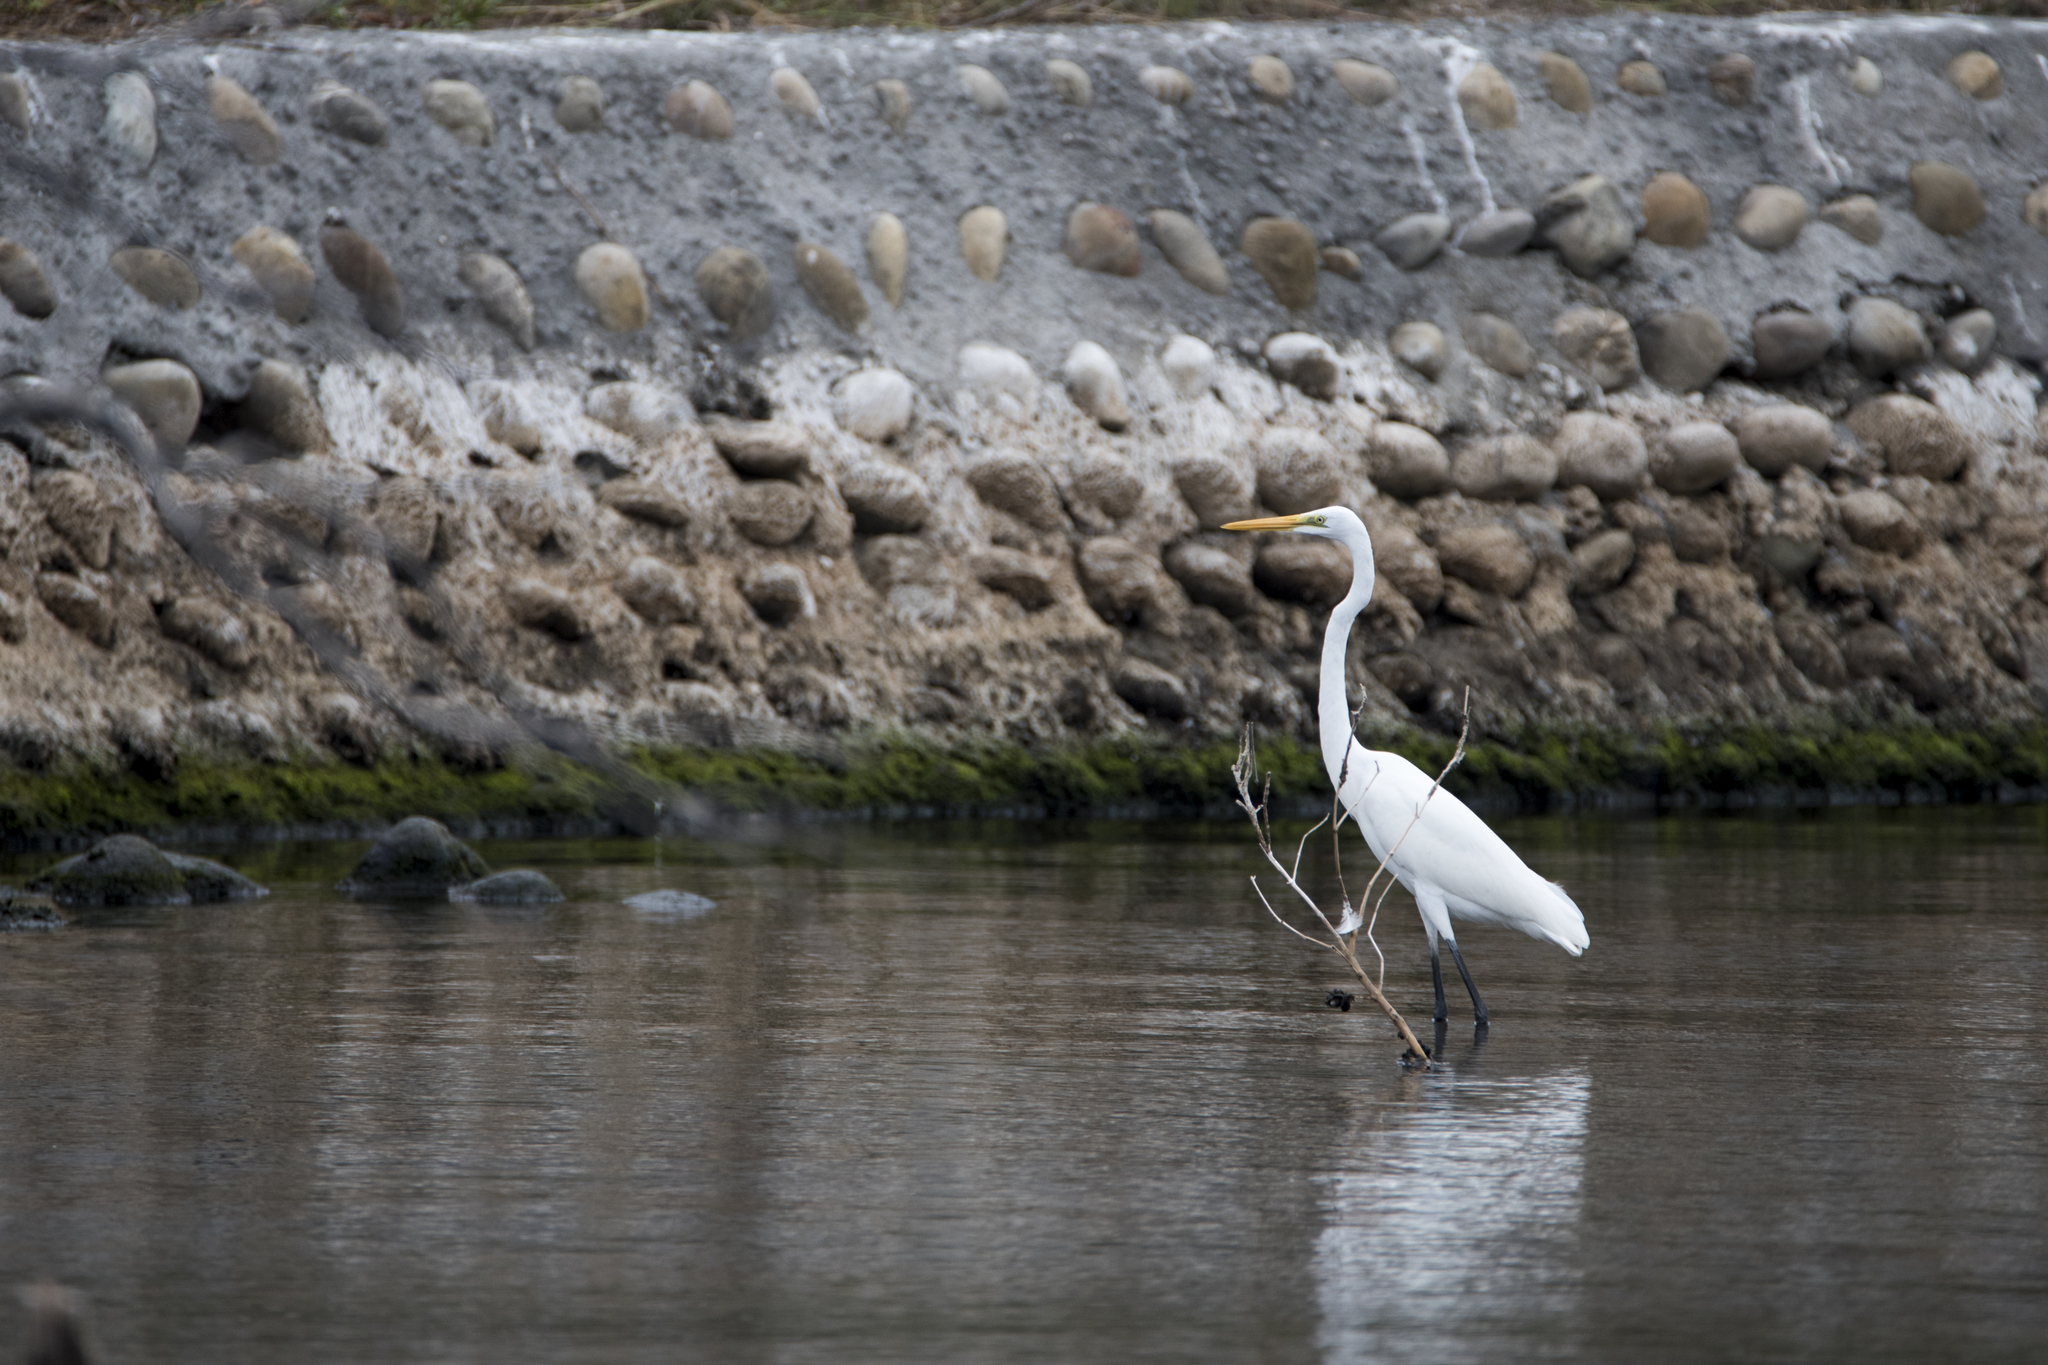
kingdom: Animalia
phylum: Chordata
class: Aves
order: Pelecaniformes
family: Ardeidae
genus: Ardea
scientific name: Ardea modesta
